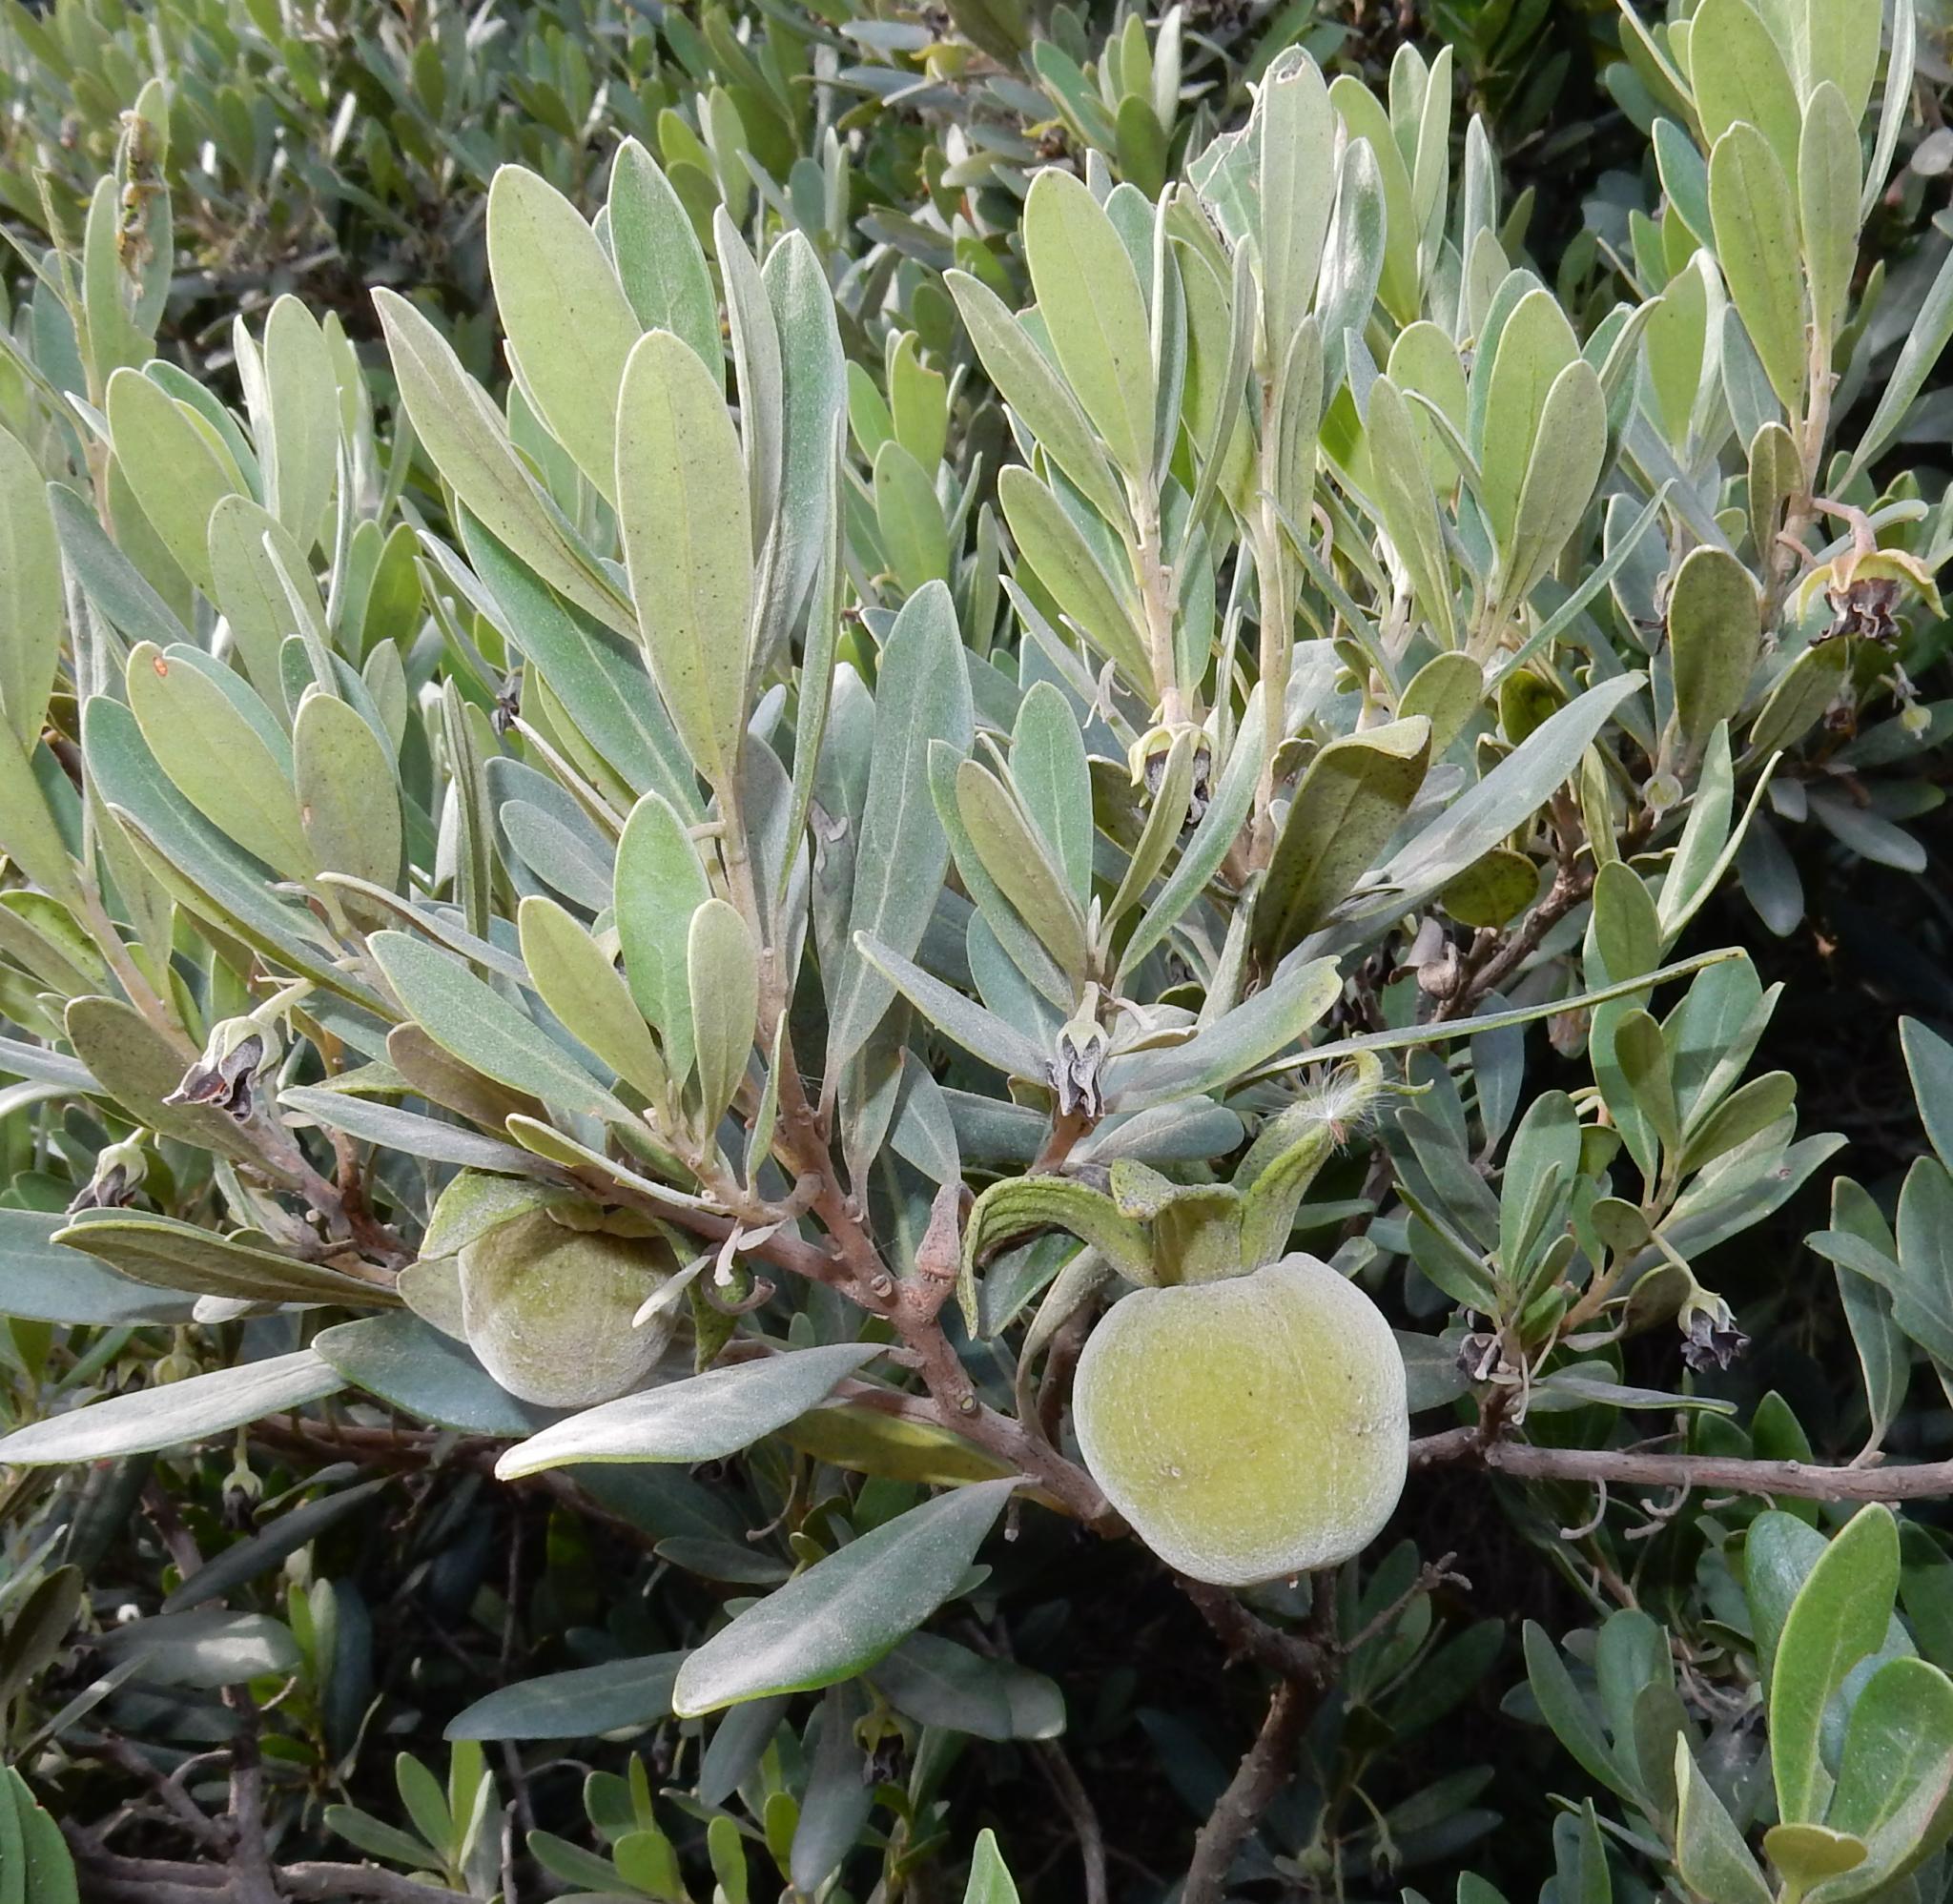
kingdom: Plantae
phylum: Tracheophyta
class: Magnoliopsida
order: Ericales
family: Ebenaceae
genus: Diospyros
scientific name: Diospyros dichrophylla
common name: Common star-apple
